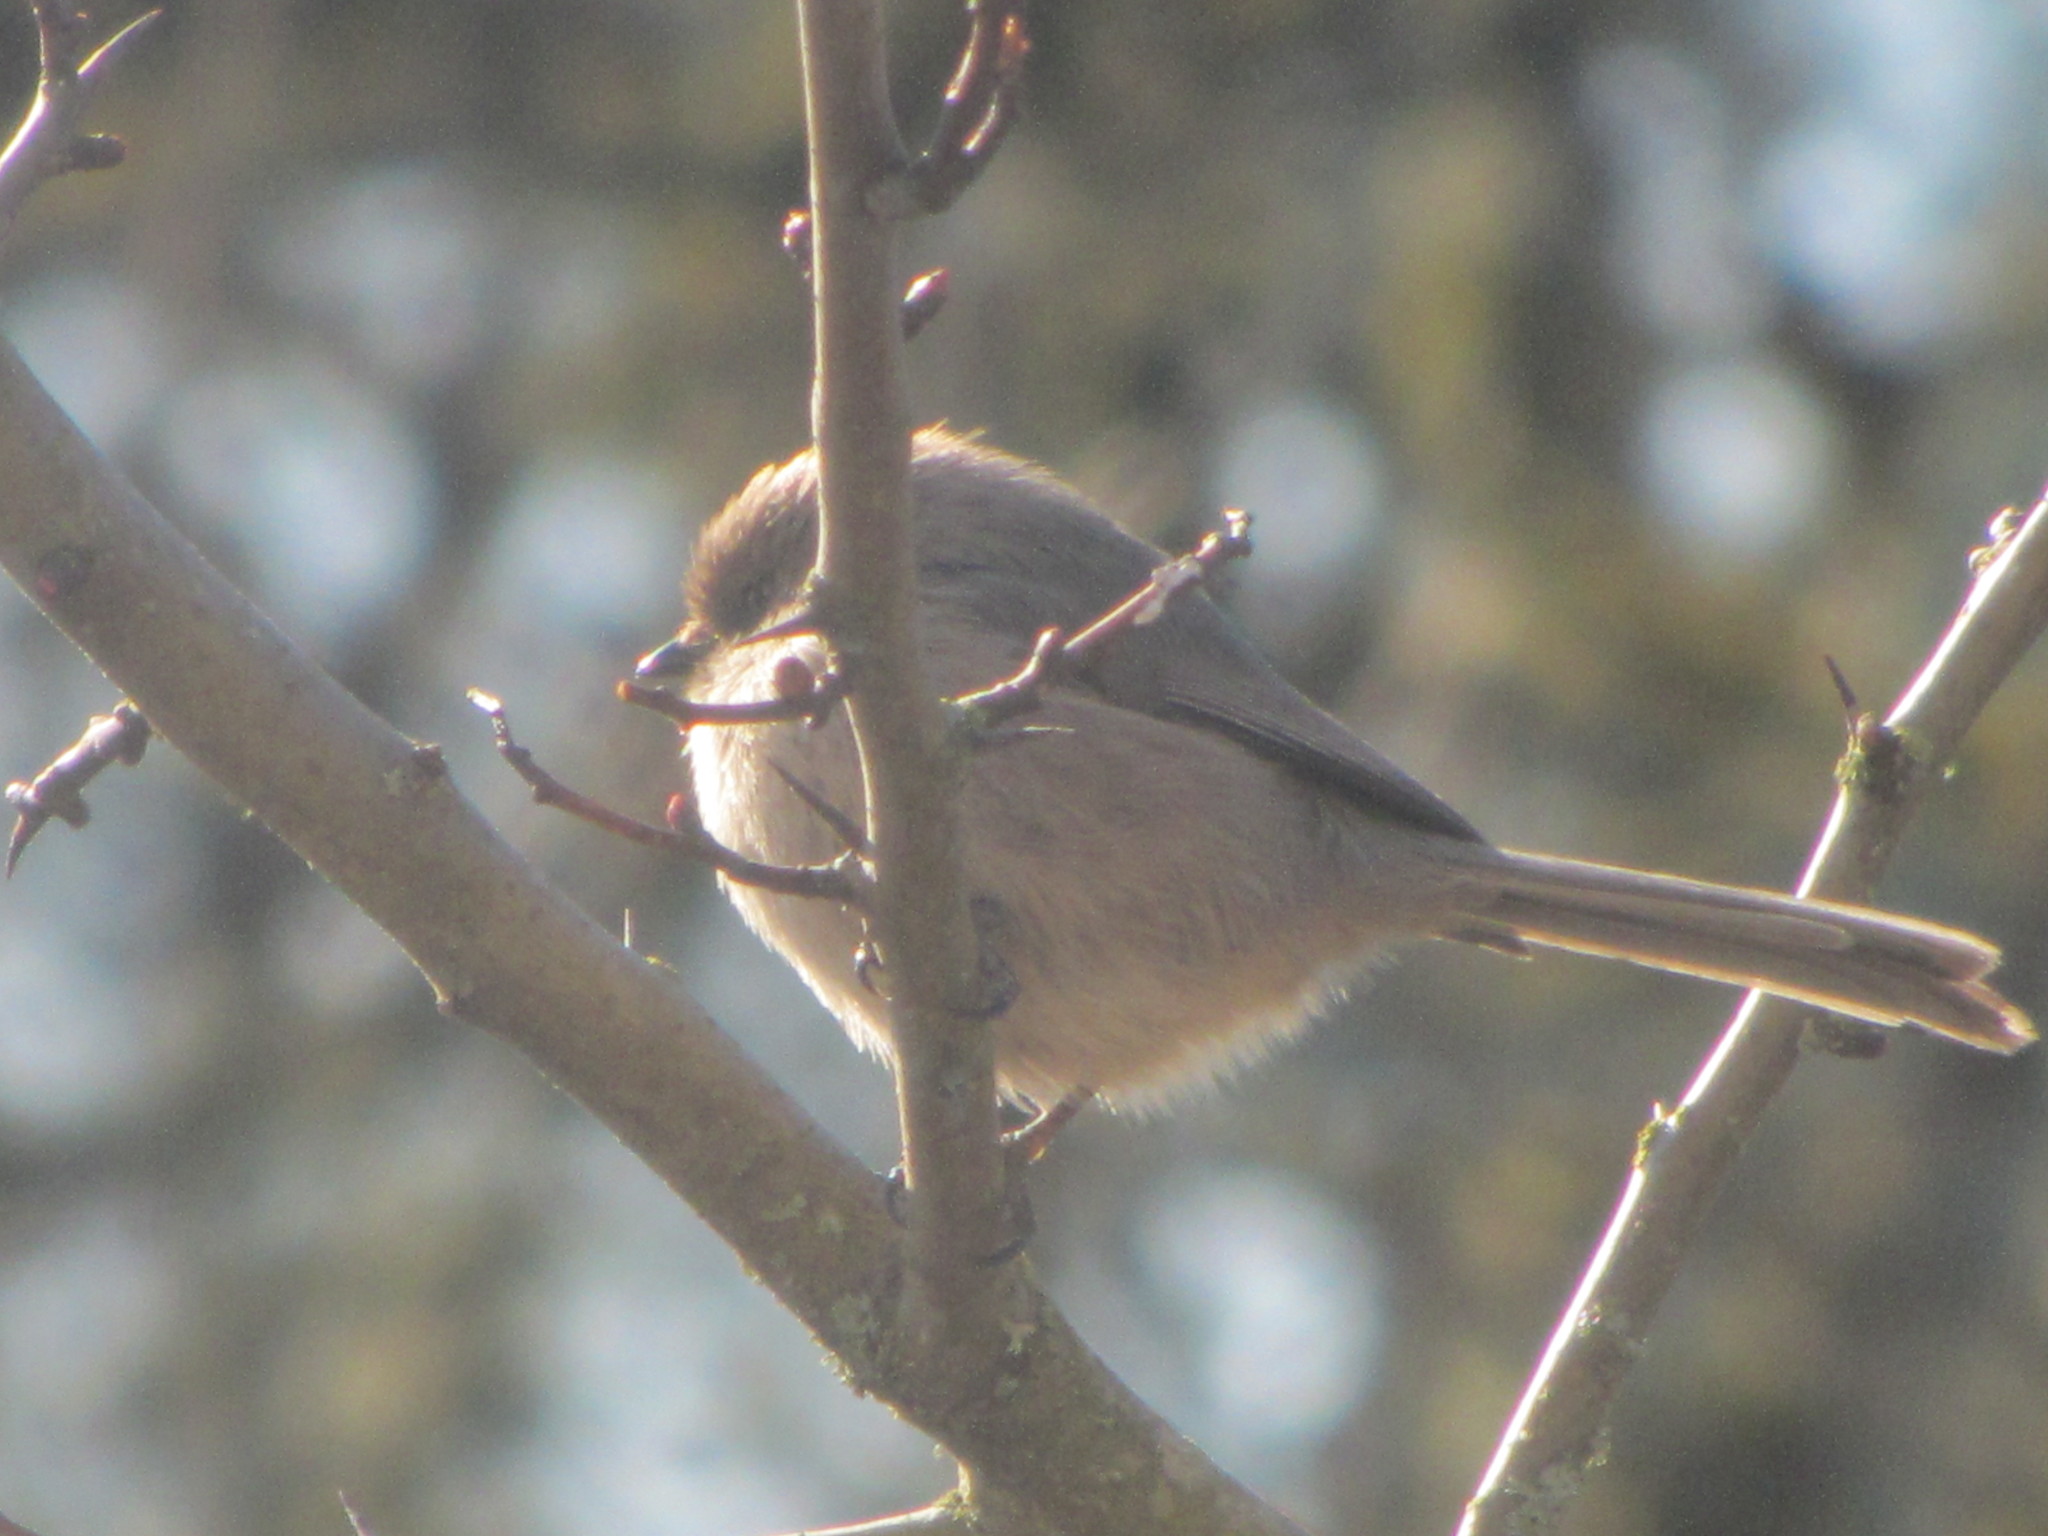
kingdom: Animalia
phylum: Chordata
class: Aves
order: Passeriformes
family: Aegithalidae
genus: Psaltriparus
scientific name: Psaltriparus minimus
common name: American bushtit
